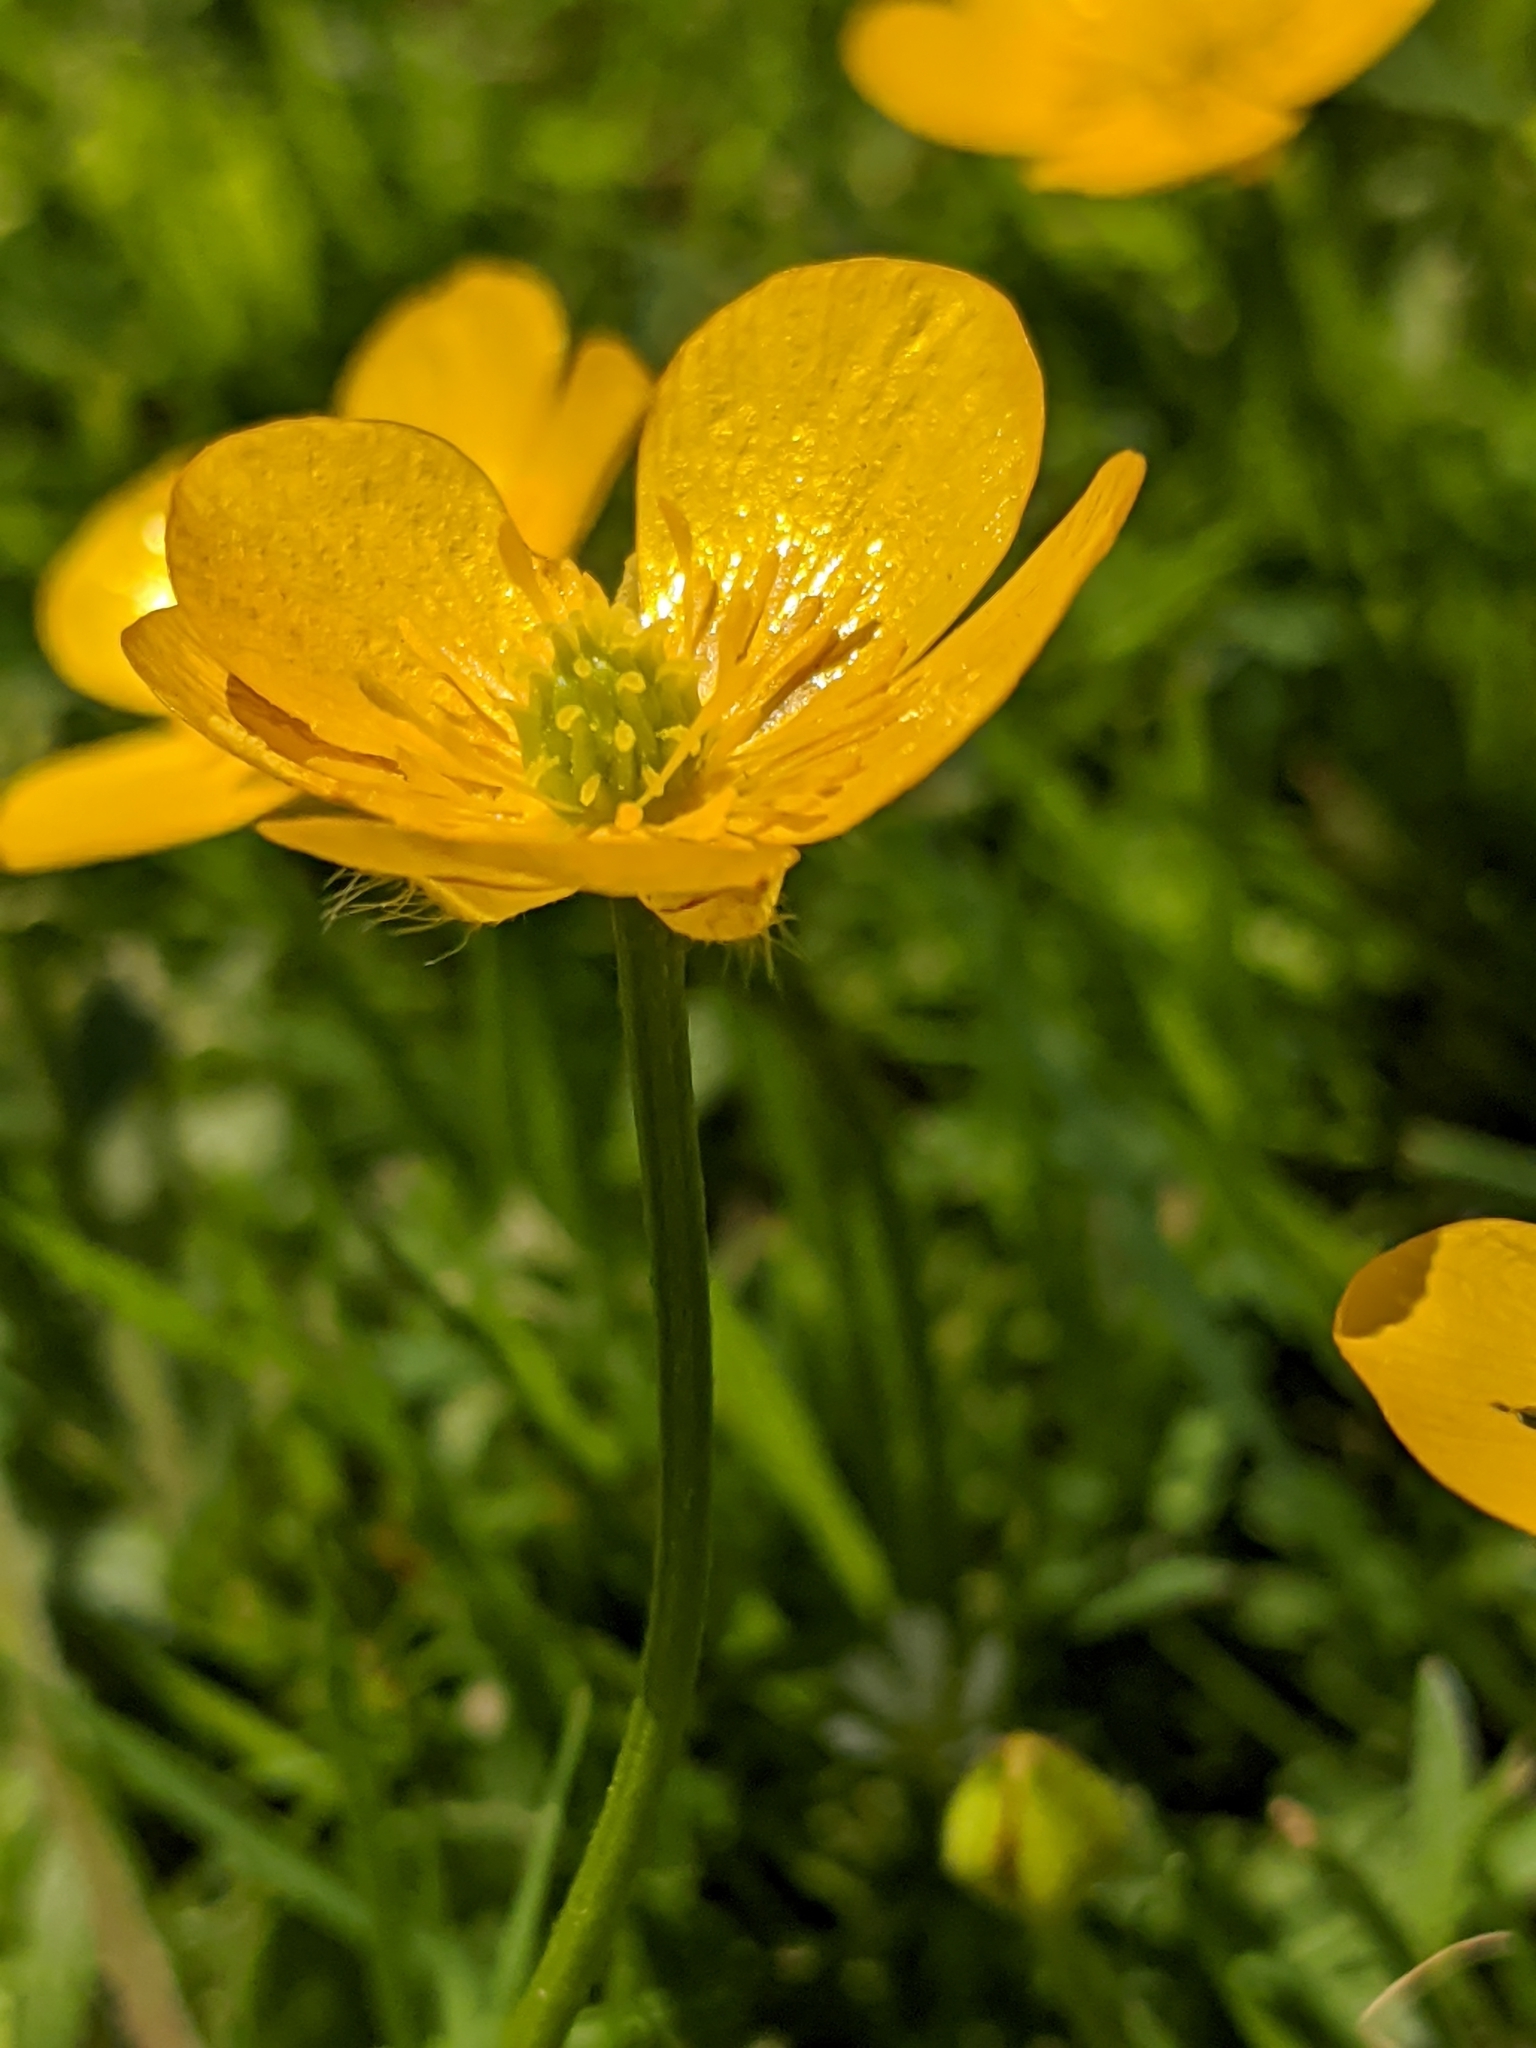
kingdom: Plantae
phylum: Tracheophyta
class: Magnoliopsida
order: Ranunculales
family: Ranunculaceae
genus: Ranunculus
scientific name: Ranunculus repens
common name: Creeping buttercup
